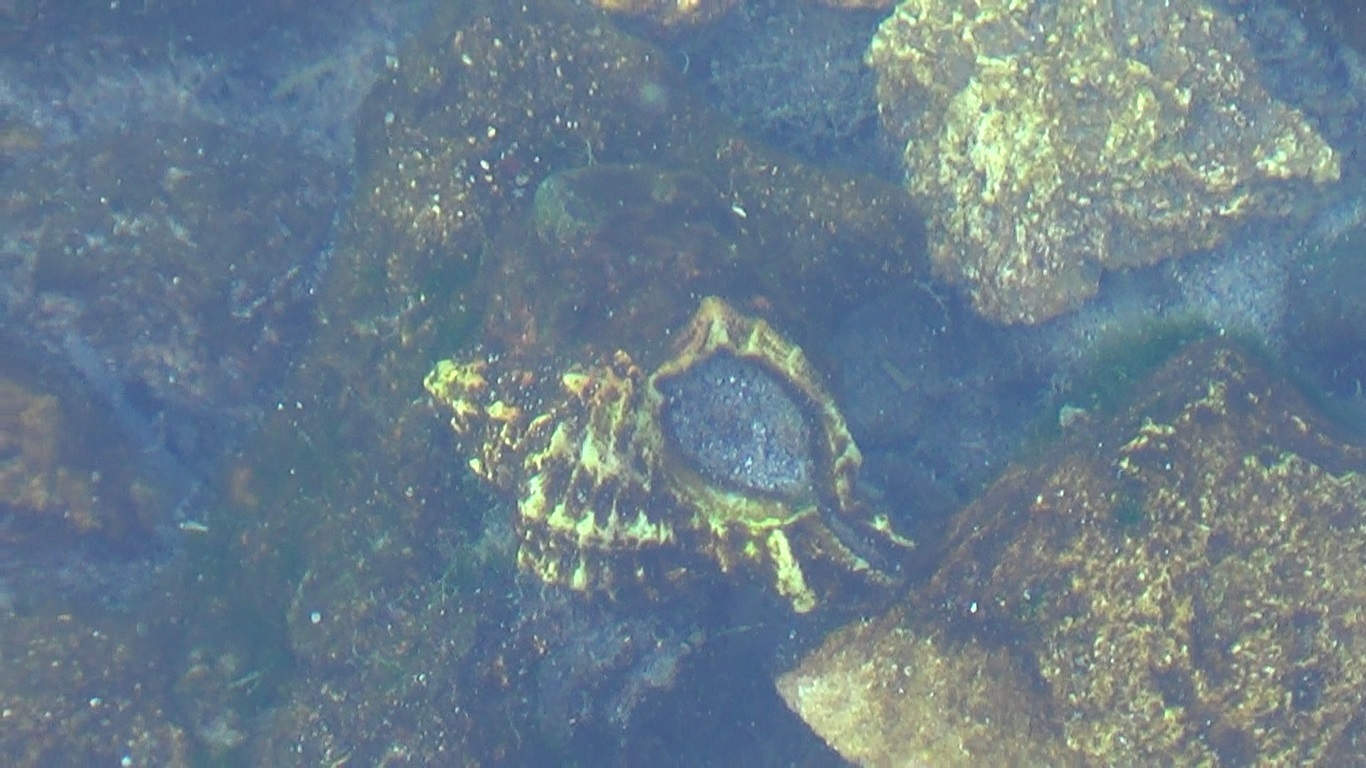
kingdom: Animalia
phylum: Mollusca
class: Gastropoda
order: Neogastropoda
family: Muricidae
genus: Hexaplex
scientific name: Hexaplex trunculus
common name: Banded dye-murex
